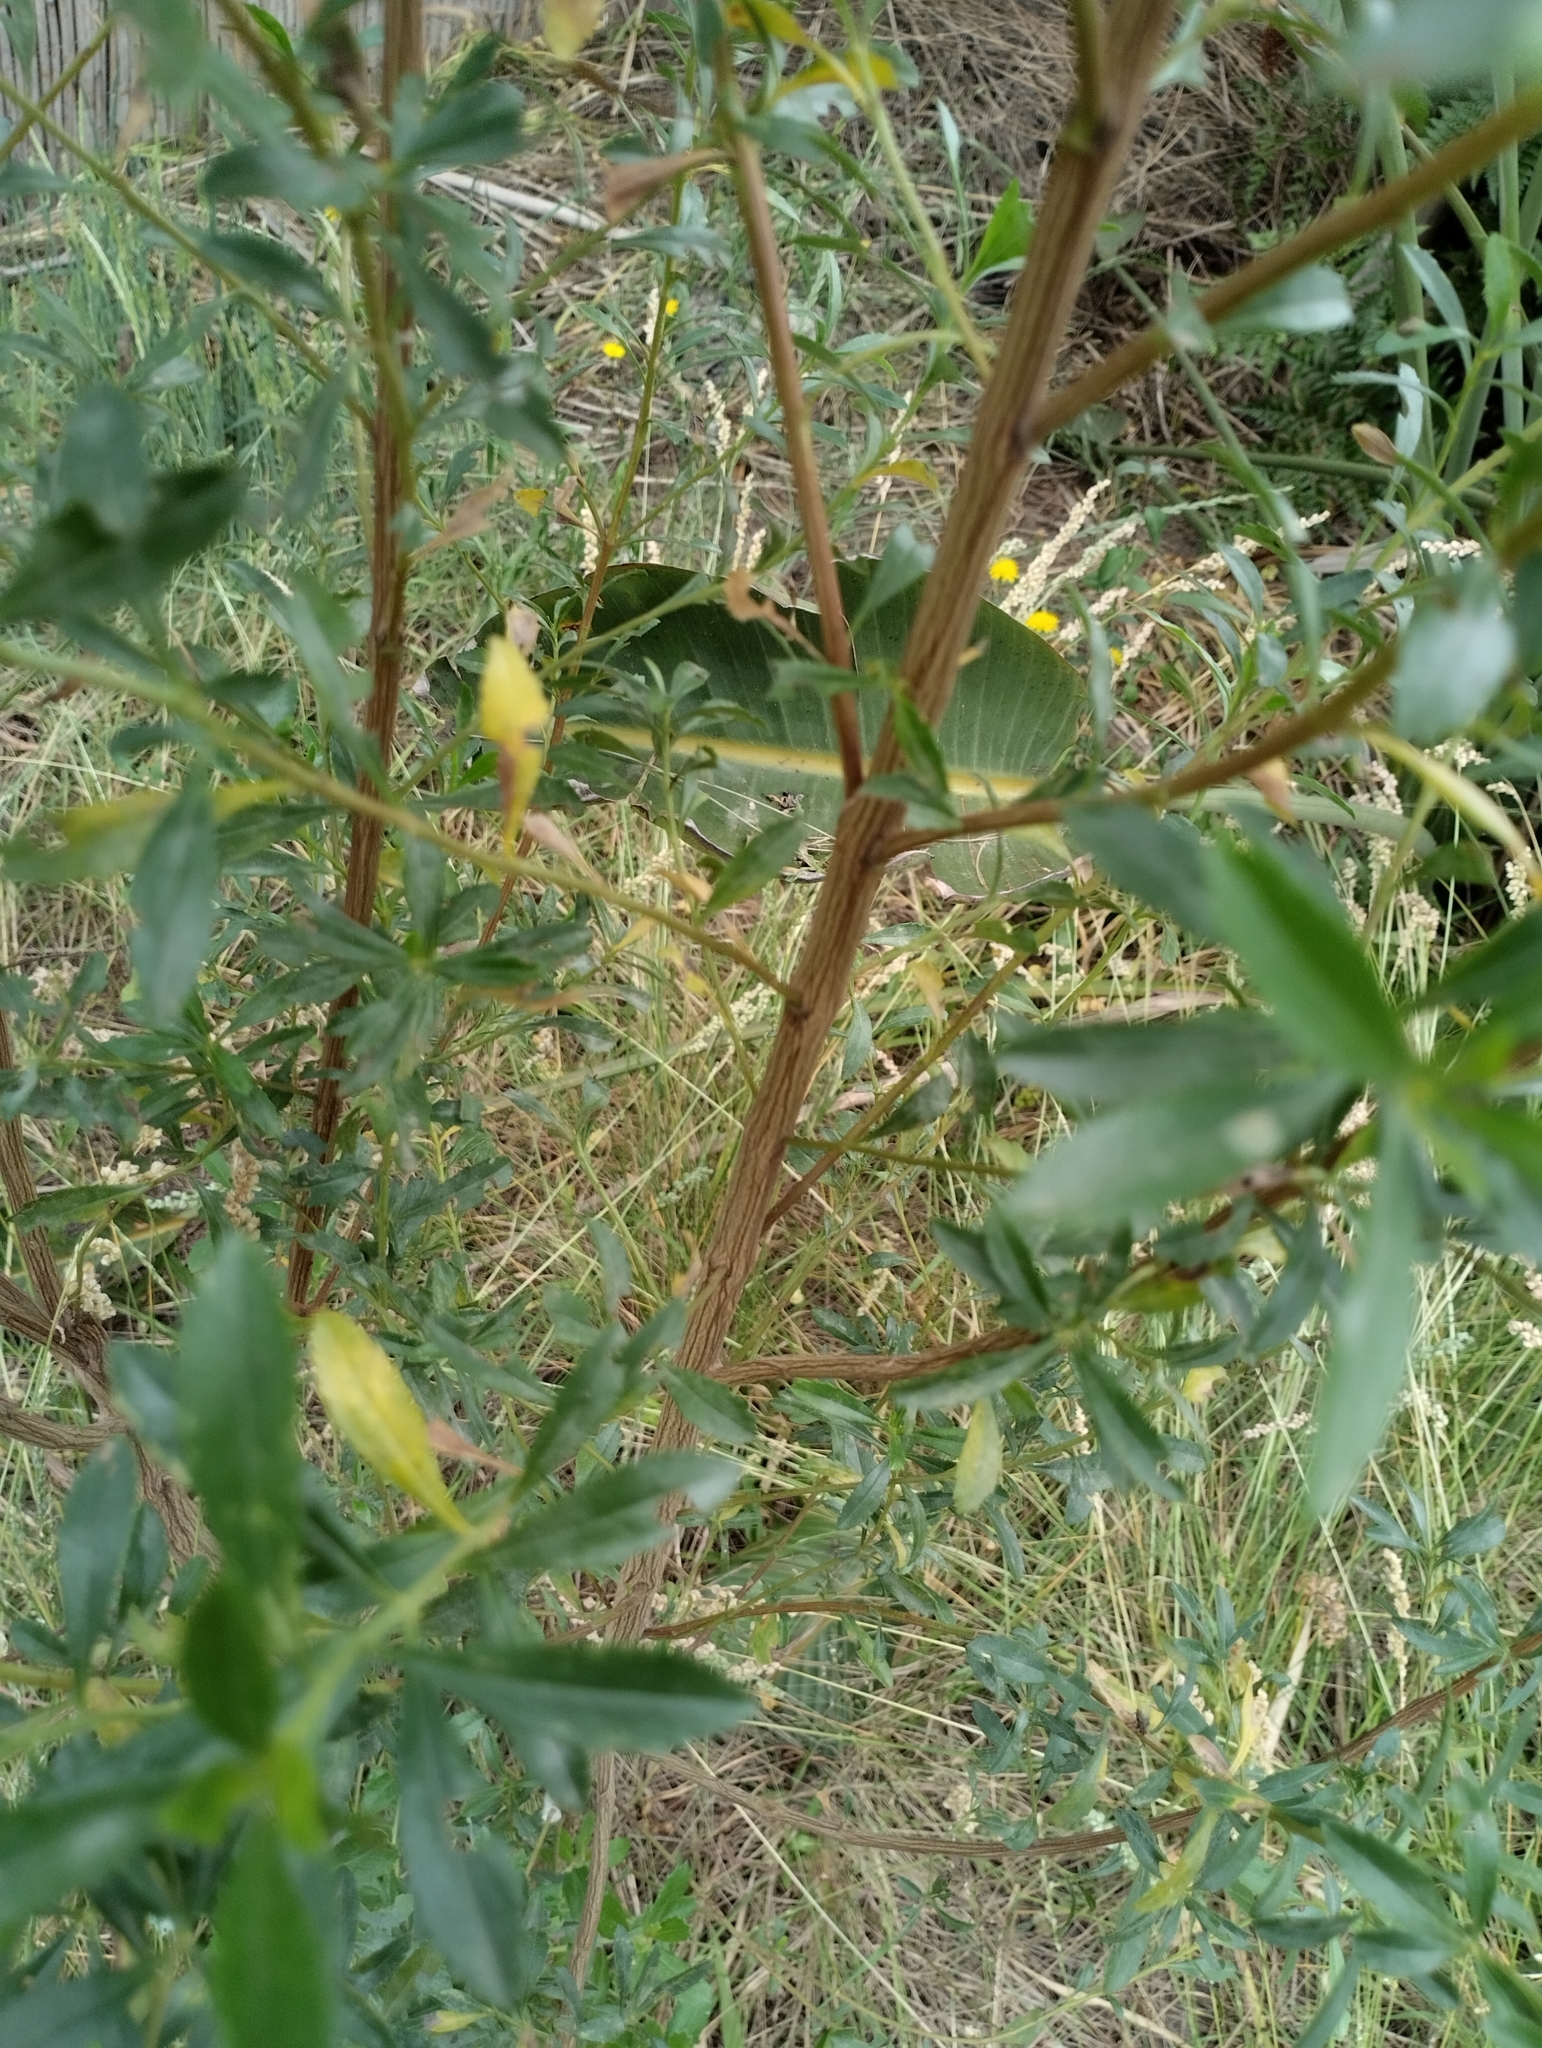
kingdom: Plantae
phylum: Tracheophyta
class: Magnoliopsida
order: Asterales
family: Asteraceae
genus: Baccharis
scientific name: Baccharis microdonta
